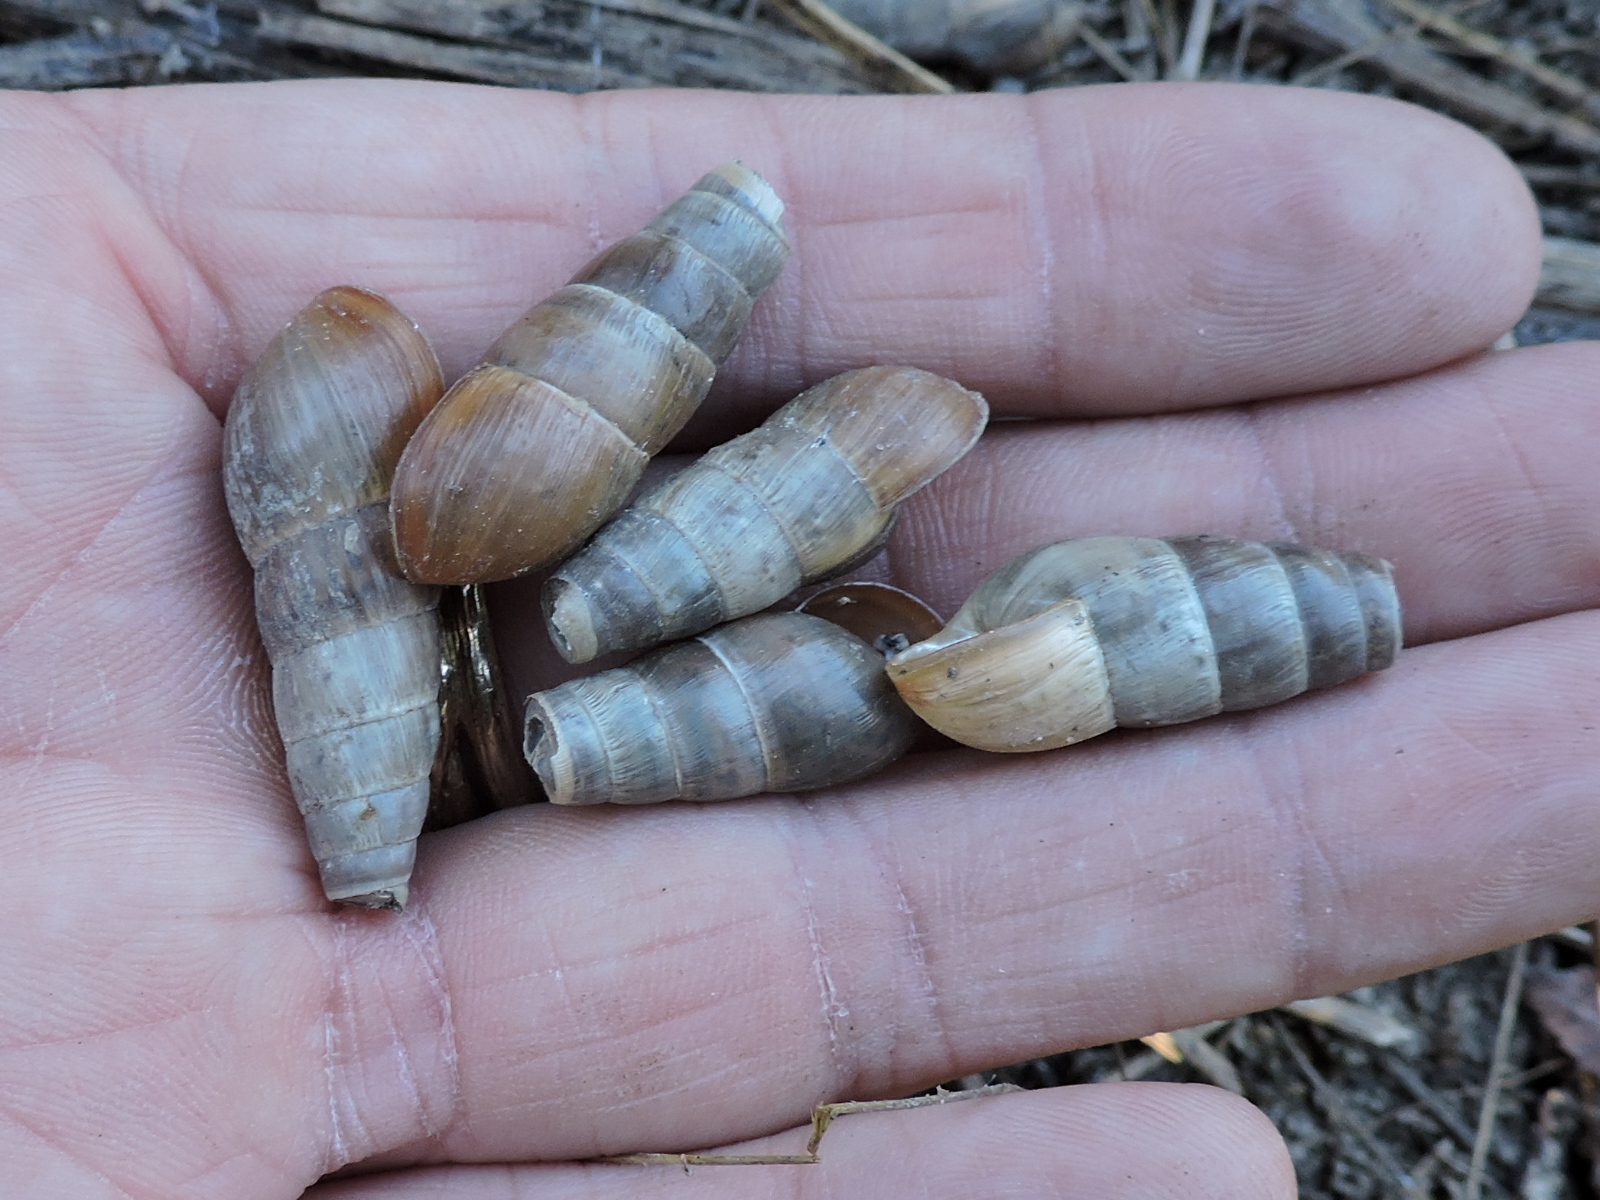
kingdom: Animalia
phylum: Mollusca
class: Gastropoda
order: Stylommatophora
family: Achatinidae
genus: Rumina
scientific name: Rumina decollata
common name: Decollate snail
